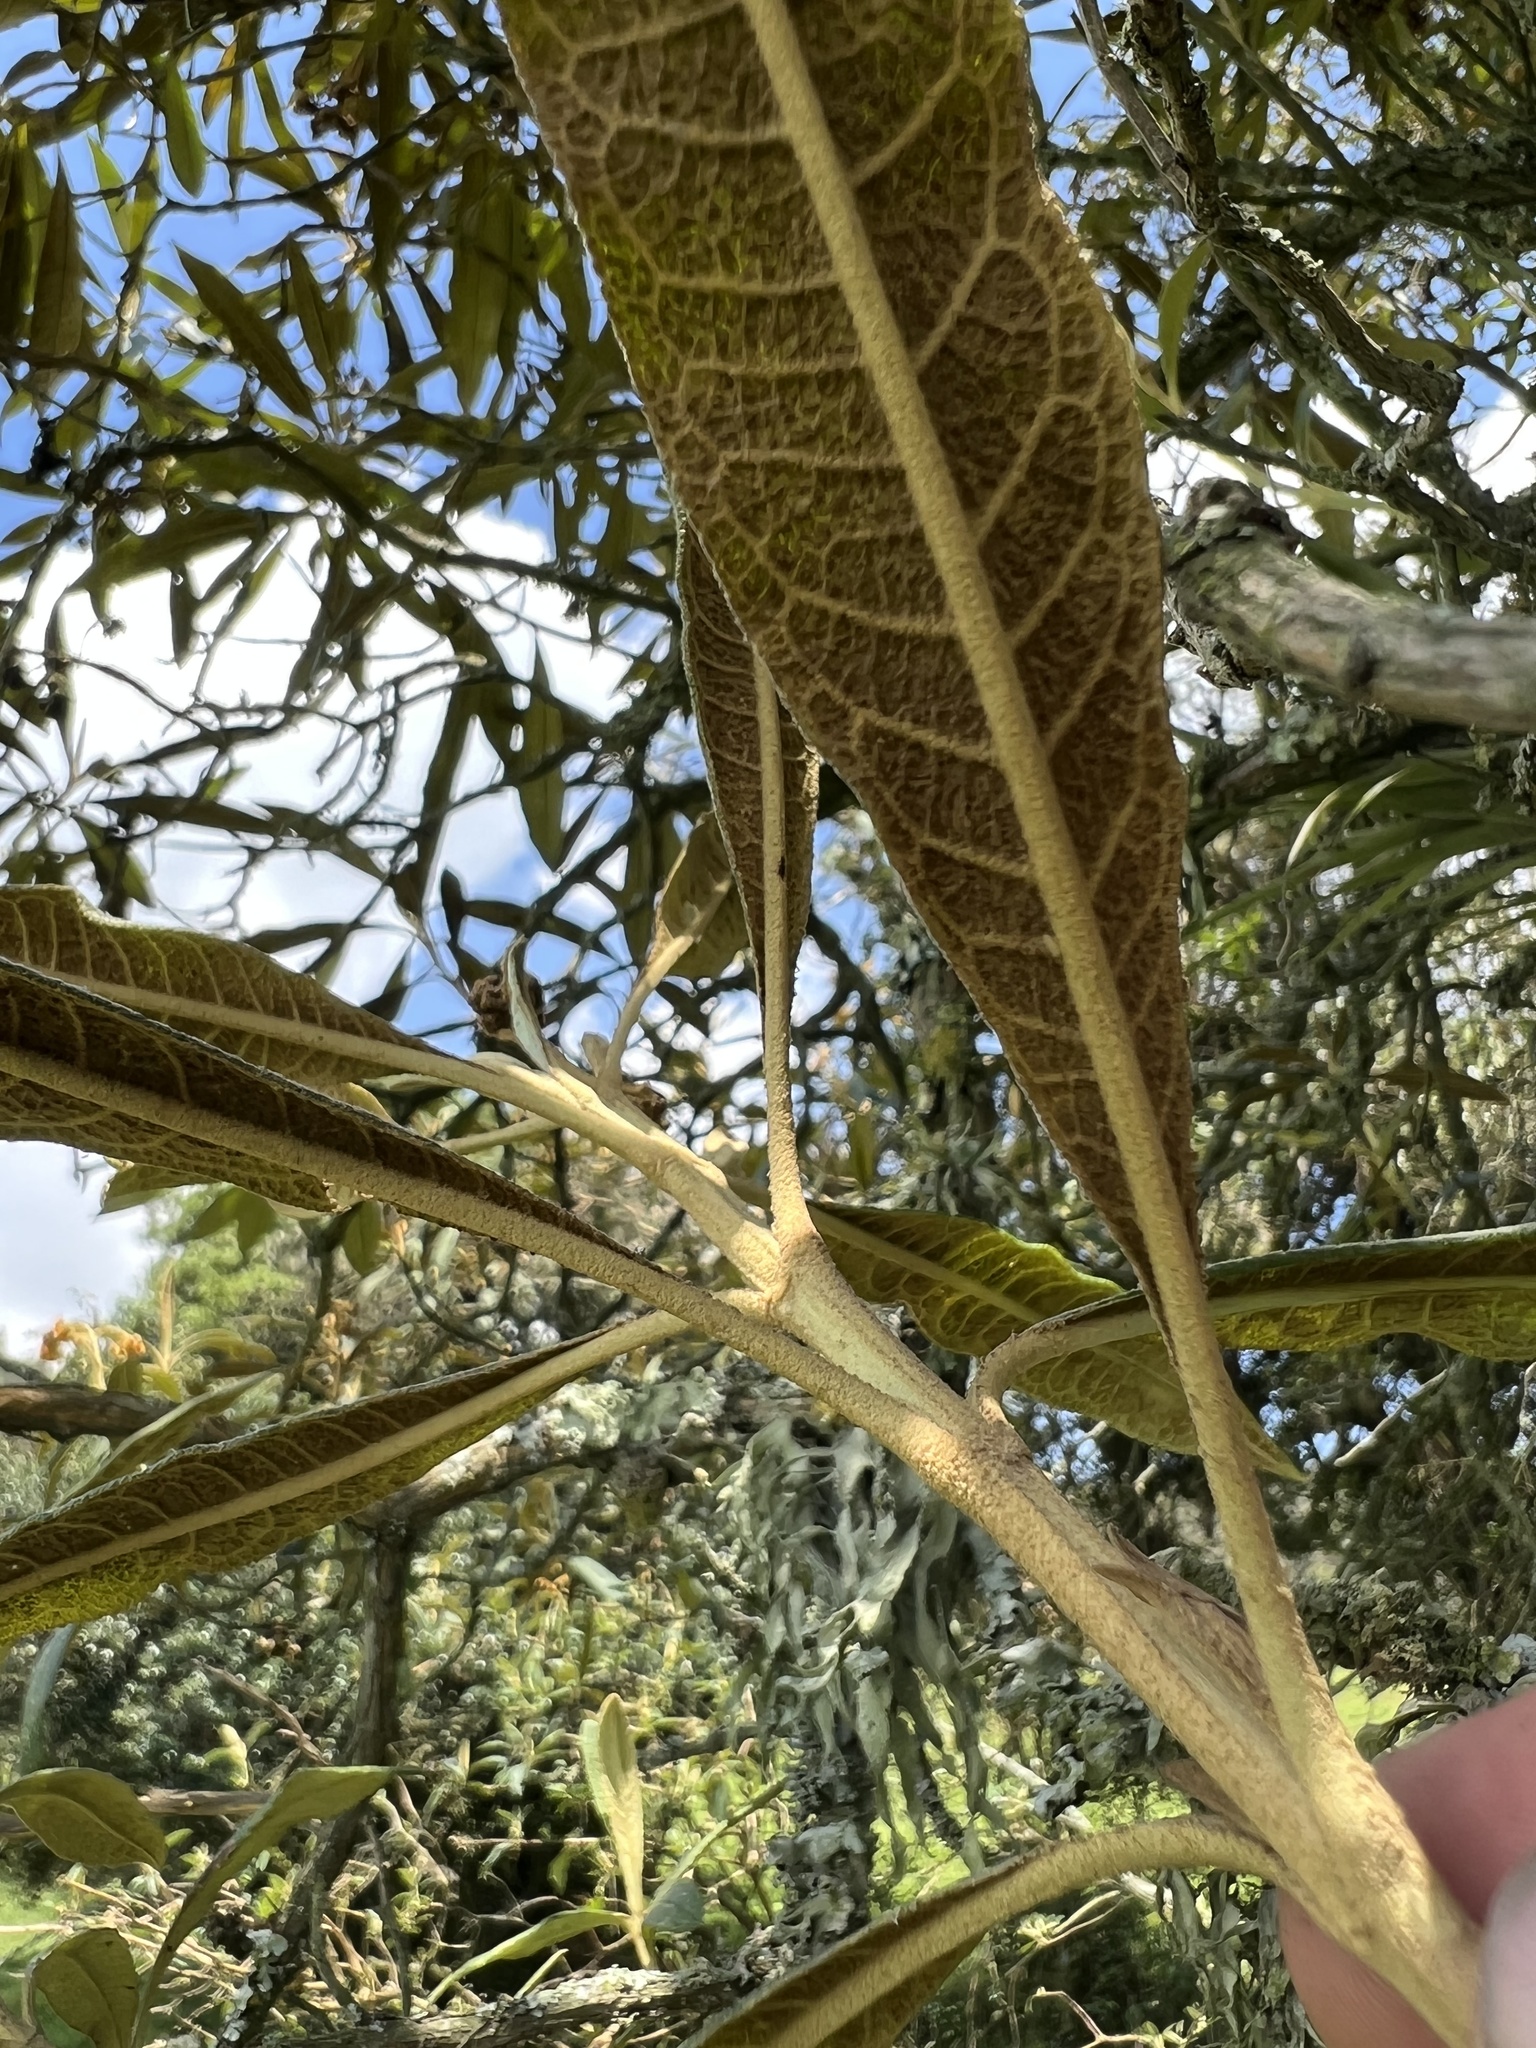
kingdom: Plantae
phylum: Tracheophyta
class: Magnoliopsida
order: Lamiales
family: Scrophulariaceae
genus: Buddleja
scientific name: Buddleja incana
